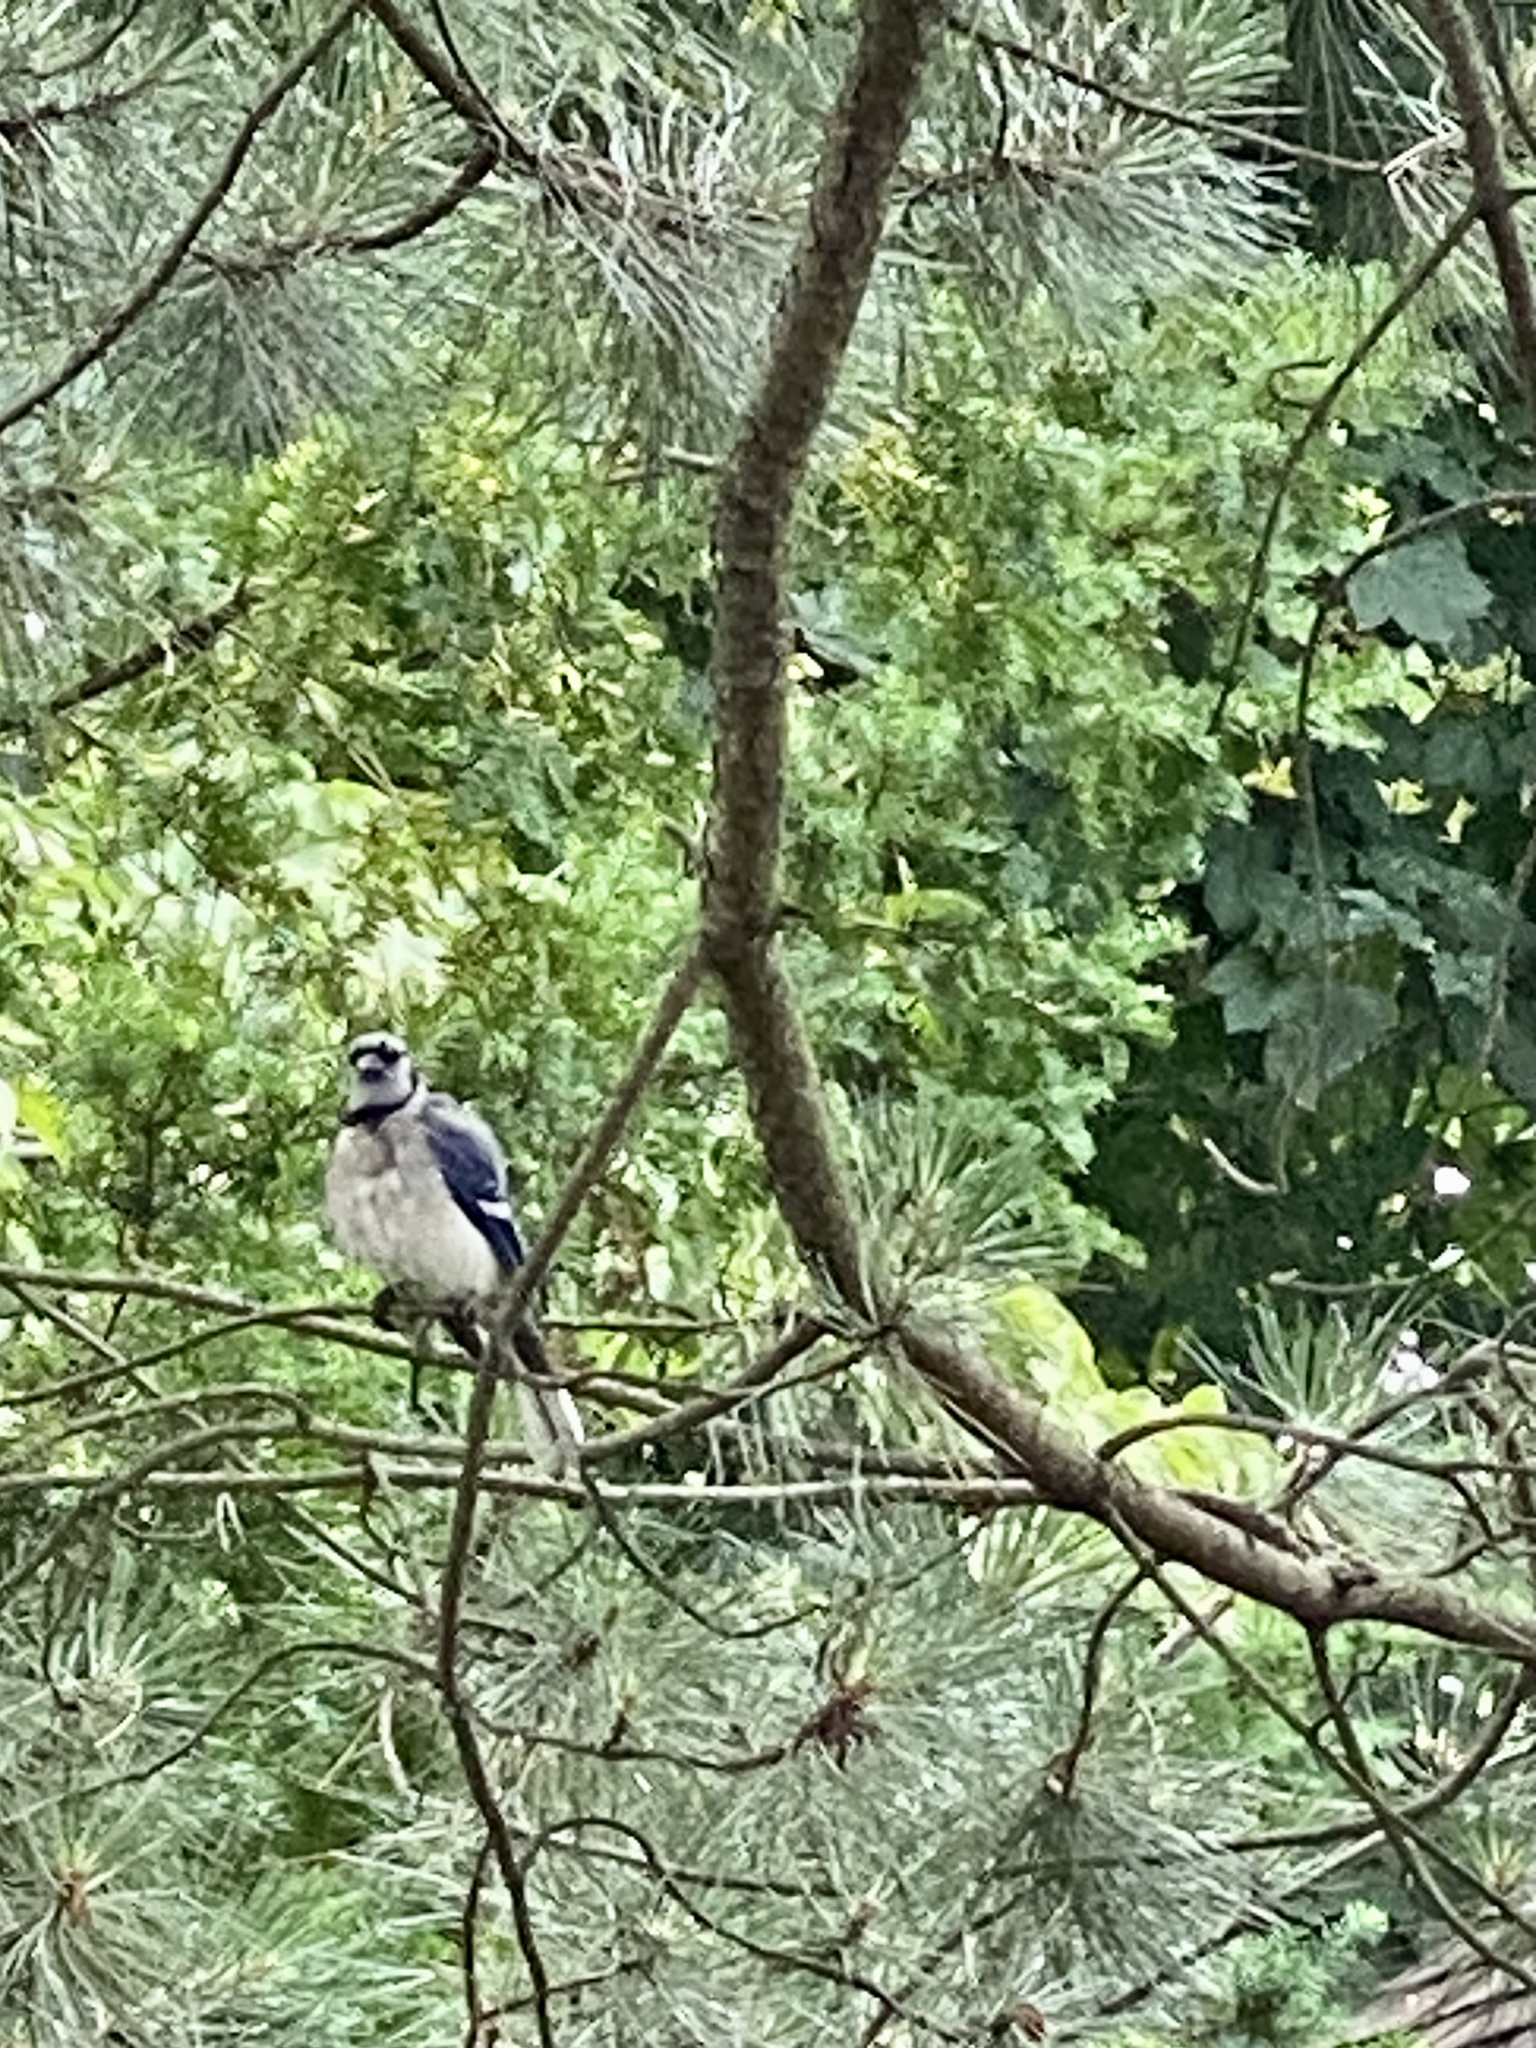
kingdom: Animalia
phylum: Chordata
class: Aves
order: Passeriformes
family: Corvidae
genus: Cyanocitta
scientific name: Cyanocitta cristata
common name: Blue jay
